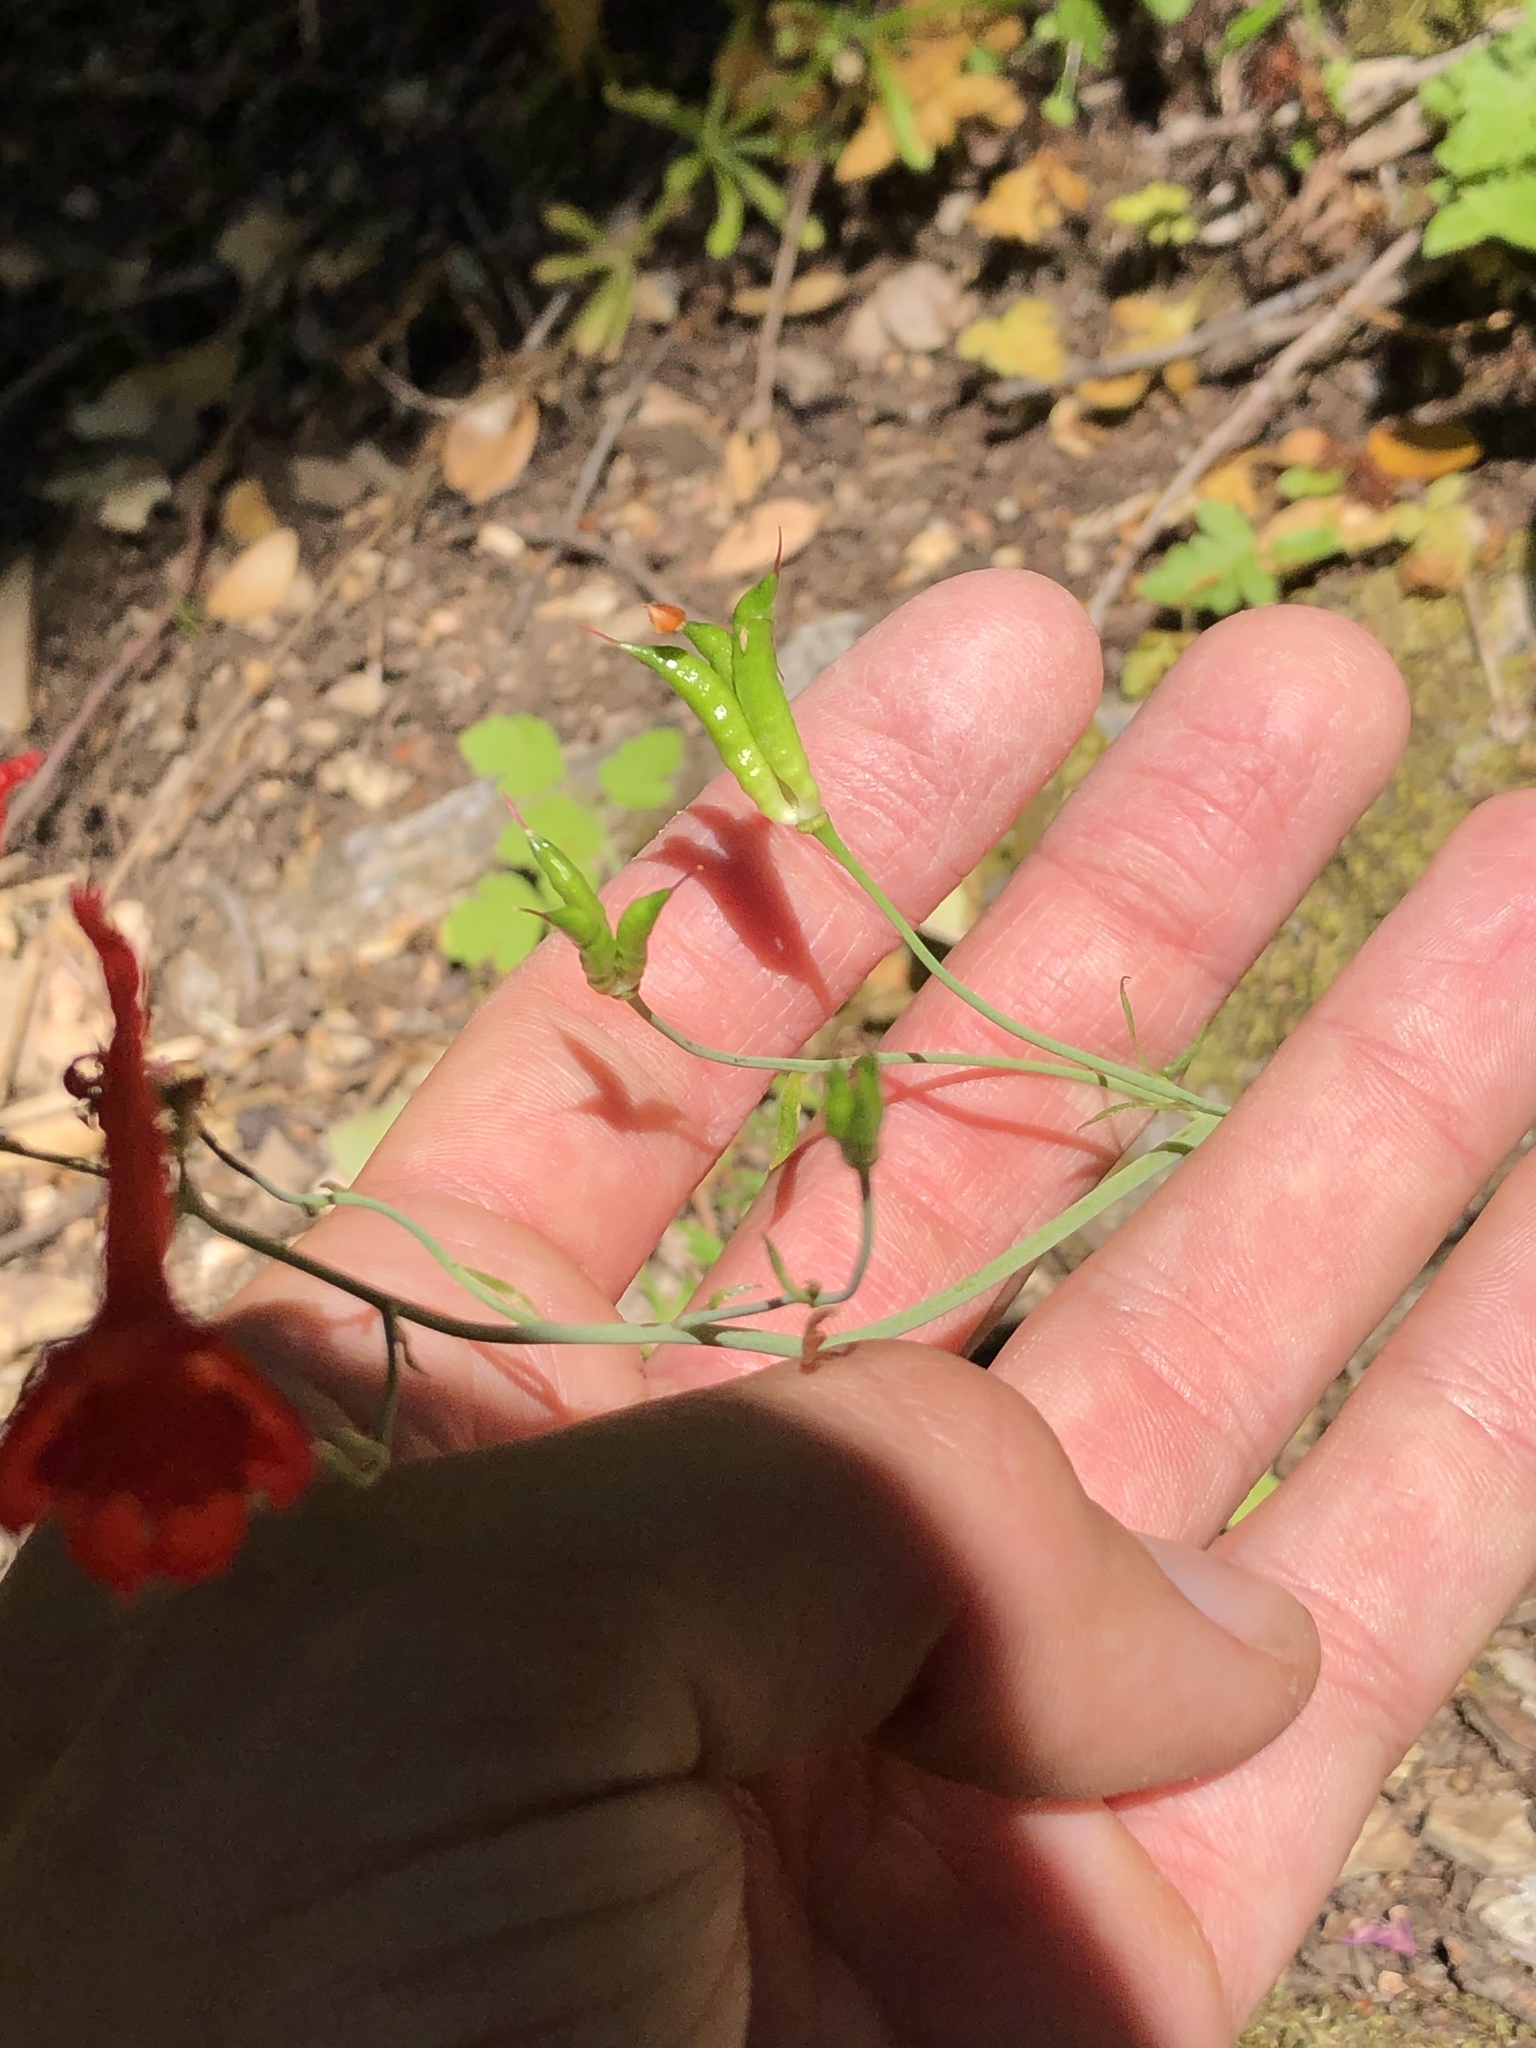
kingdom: Plantae
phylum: Tracheophyta
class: Magnoliopsida
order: Ranunculales
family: Ranunculaceae
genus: Delphinium
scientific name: Delphinium nudicaule
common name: Red larkspur
